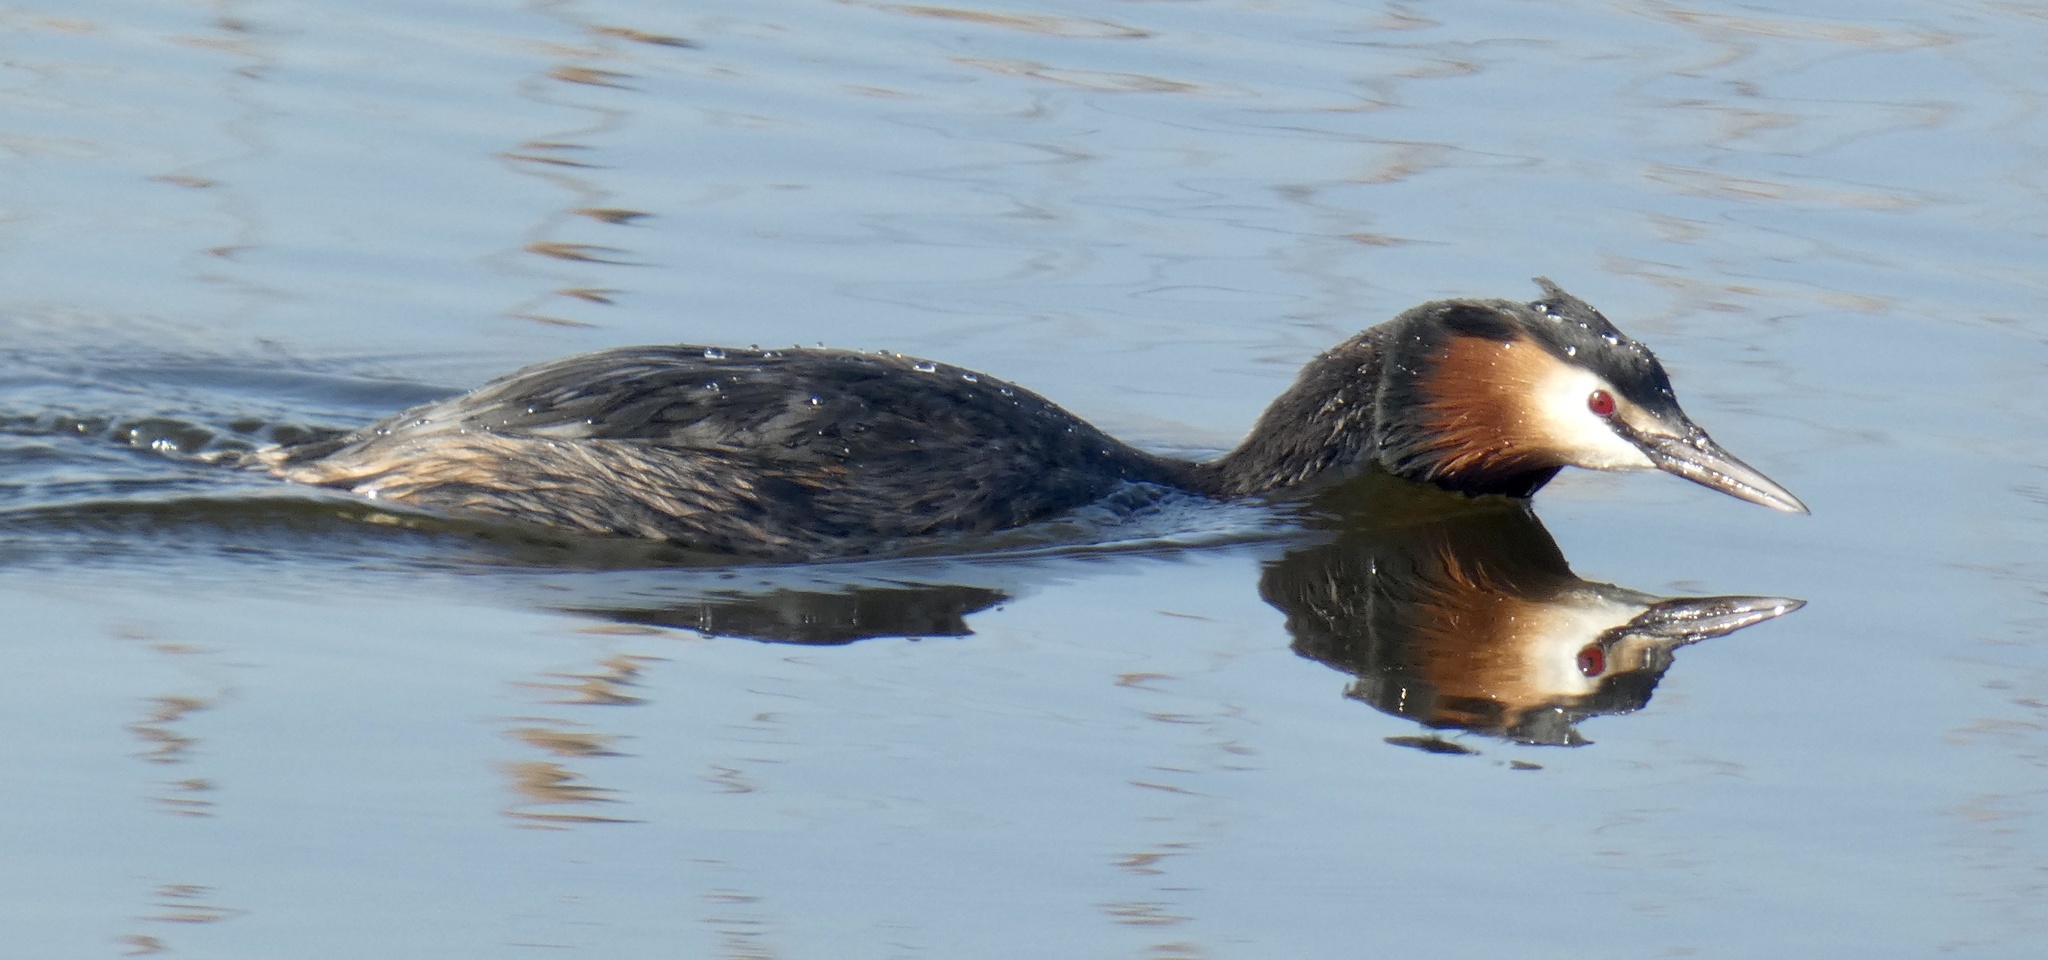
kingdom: Animalia
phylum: Chordata
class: Aves
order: Podicipediformes
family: Podicipedidae
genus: Podiceps
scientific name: Podiceps cristatus
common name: Great crested grebe
